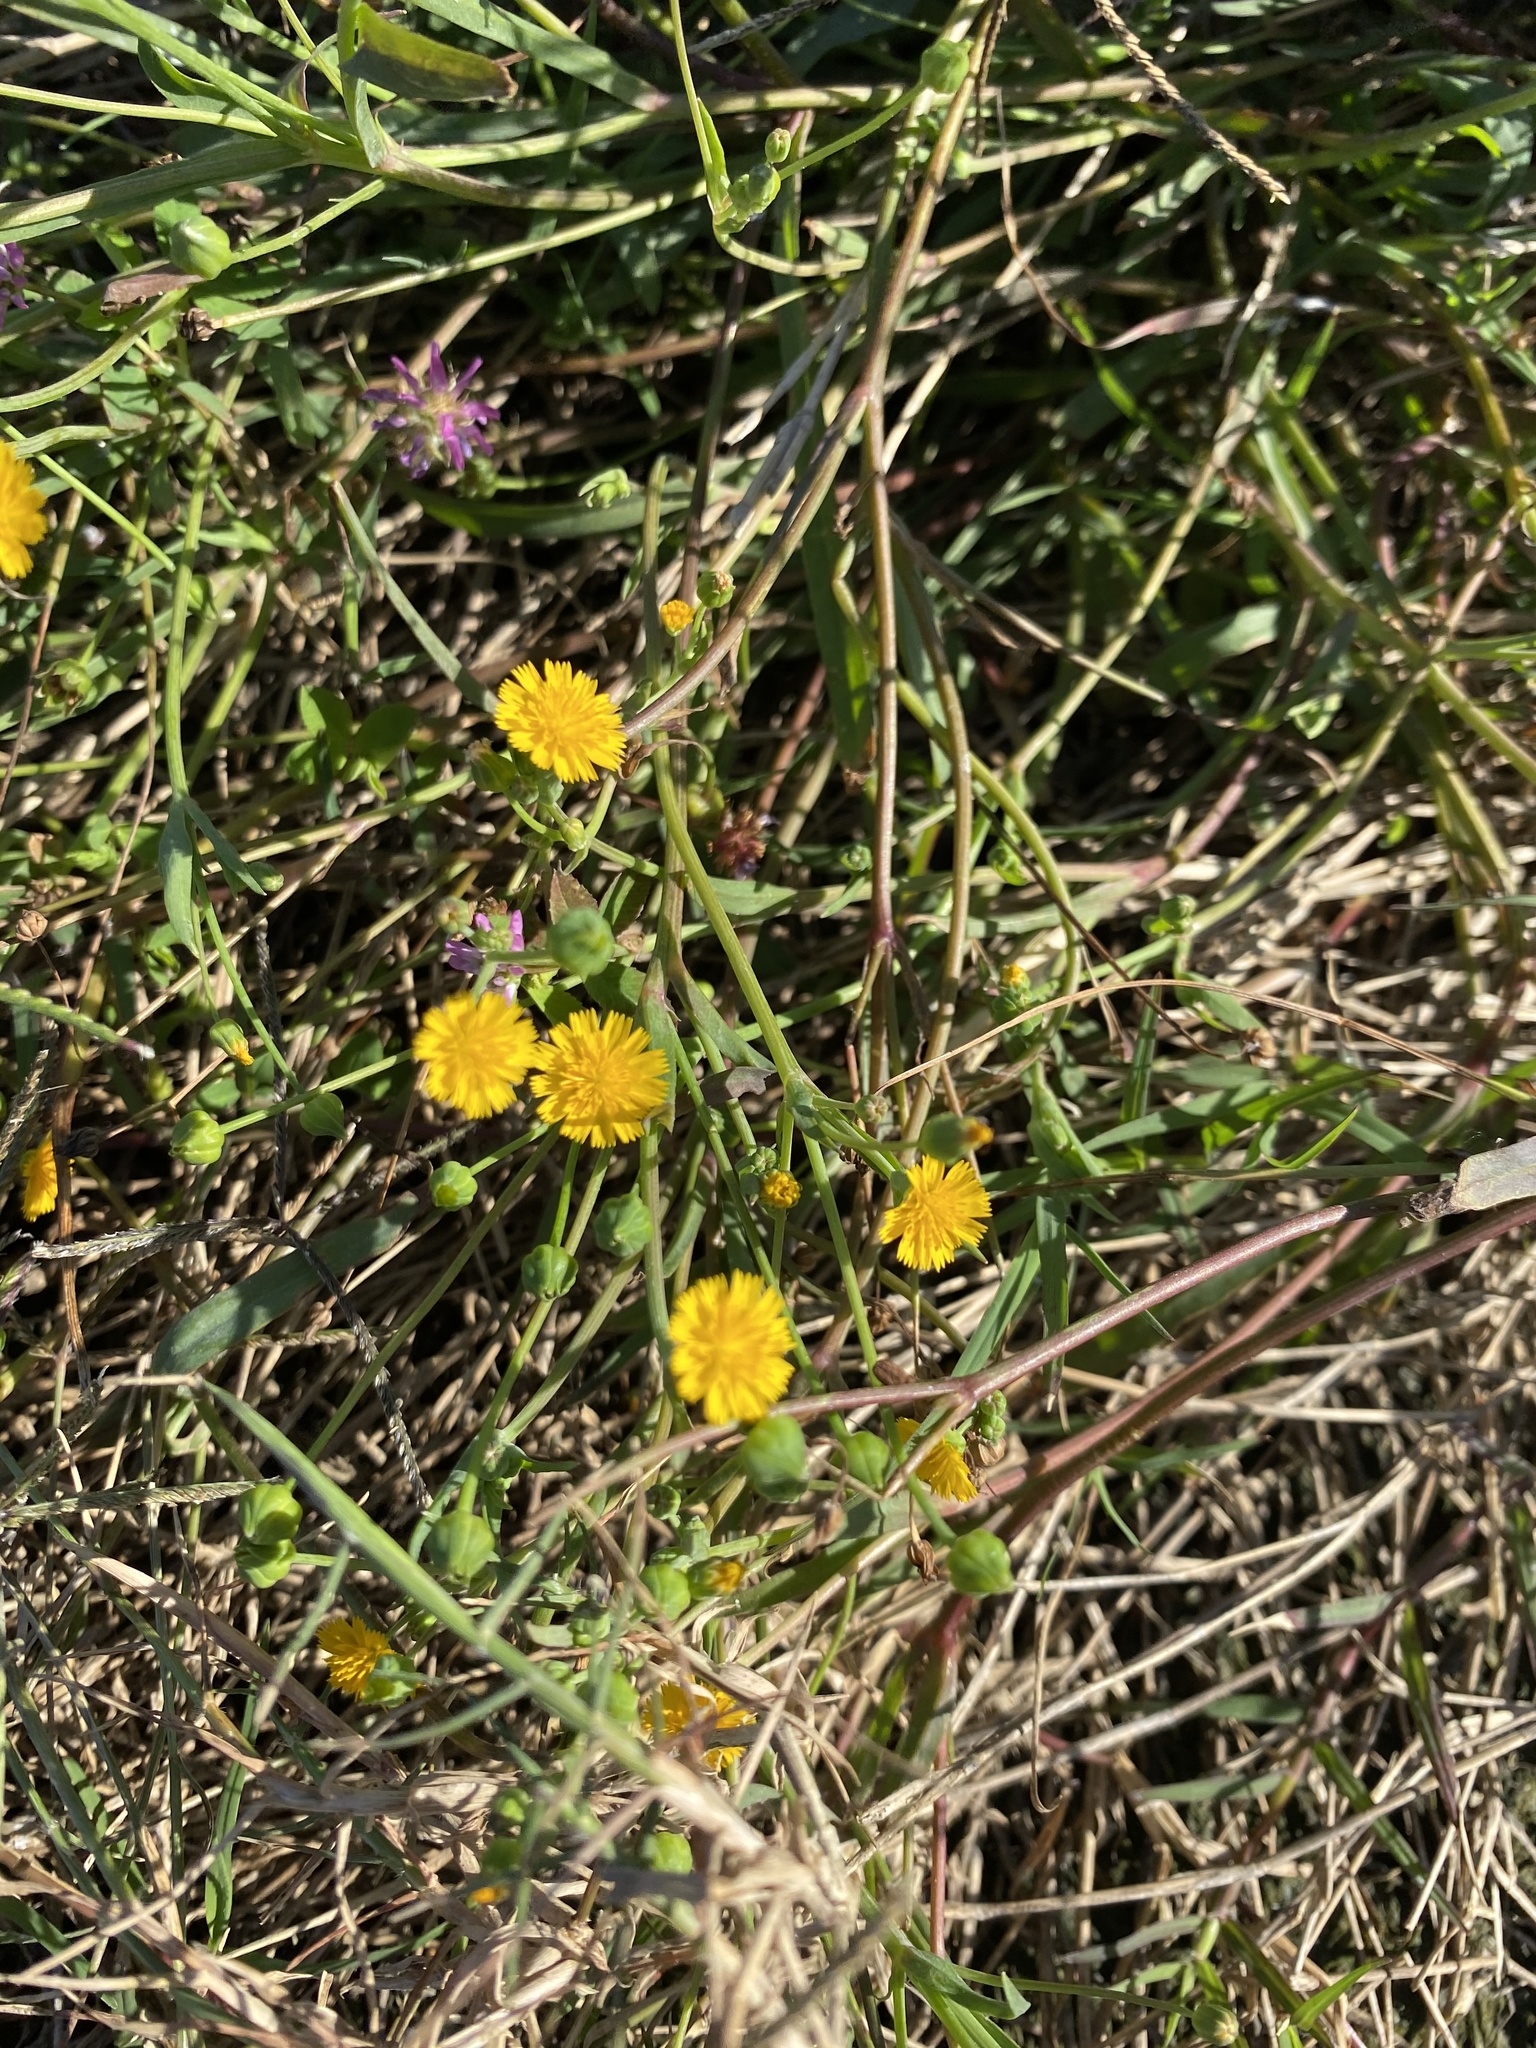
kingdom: Plantae
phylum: Tracheophyta
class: Magnoliopsida
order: Asterales
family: Asteraceae
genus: Krigia
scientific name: Krigia cespitosa
